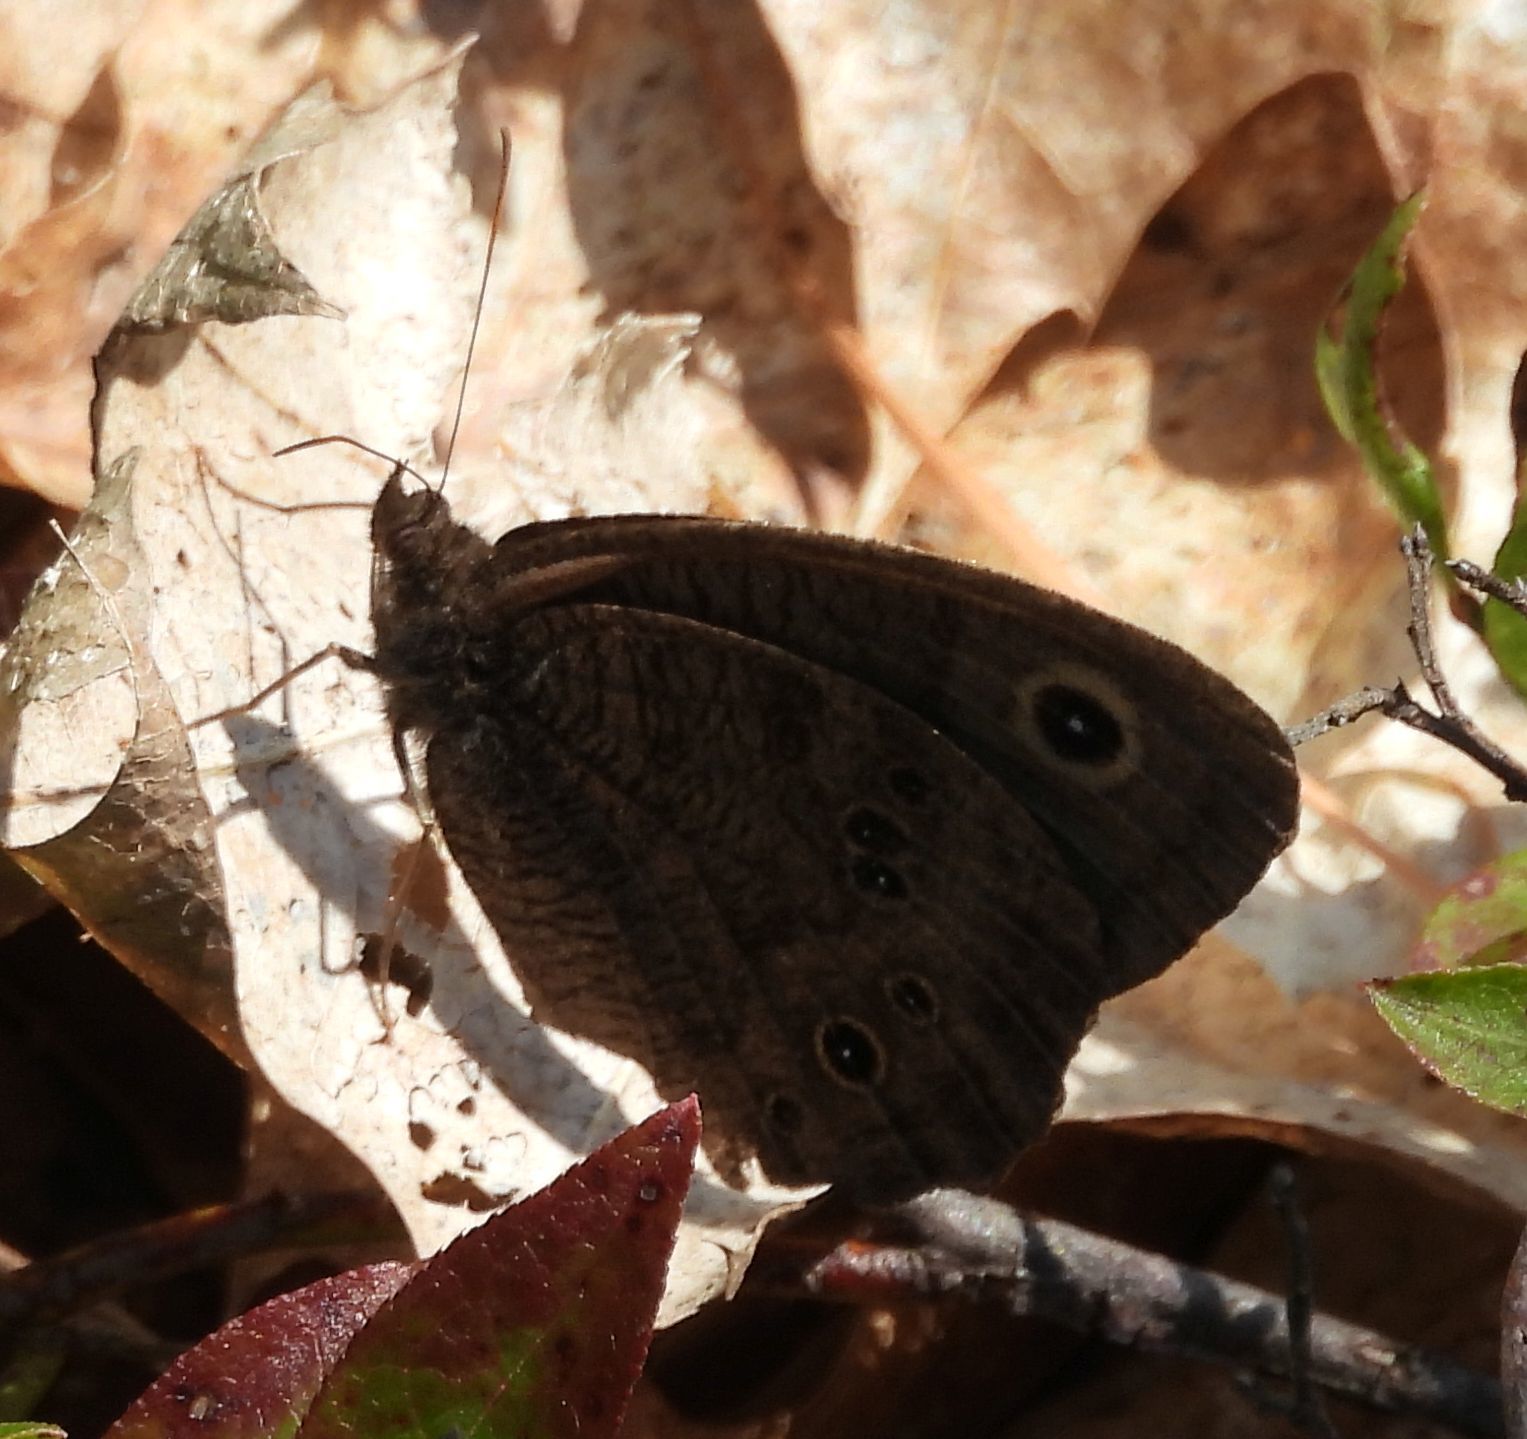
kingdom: Animalia
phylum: Arthropoda
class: Insecta
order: Lepidoptera
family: Nymphalidae
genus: Cercyonis
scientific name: Cercyonis pegala
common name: Common wood-nymph
